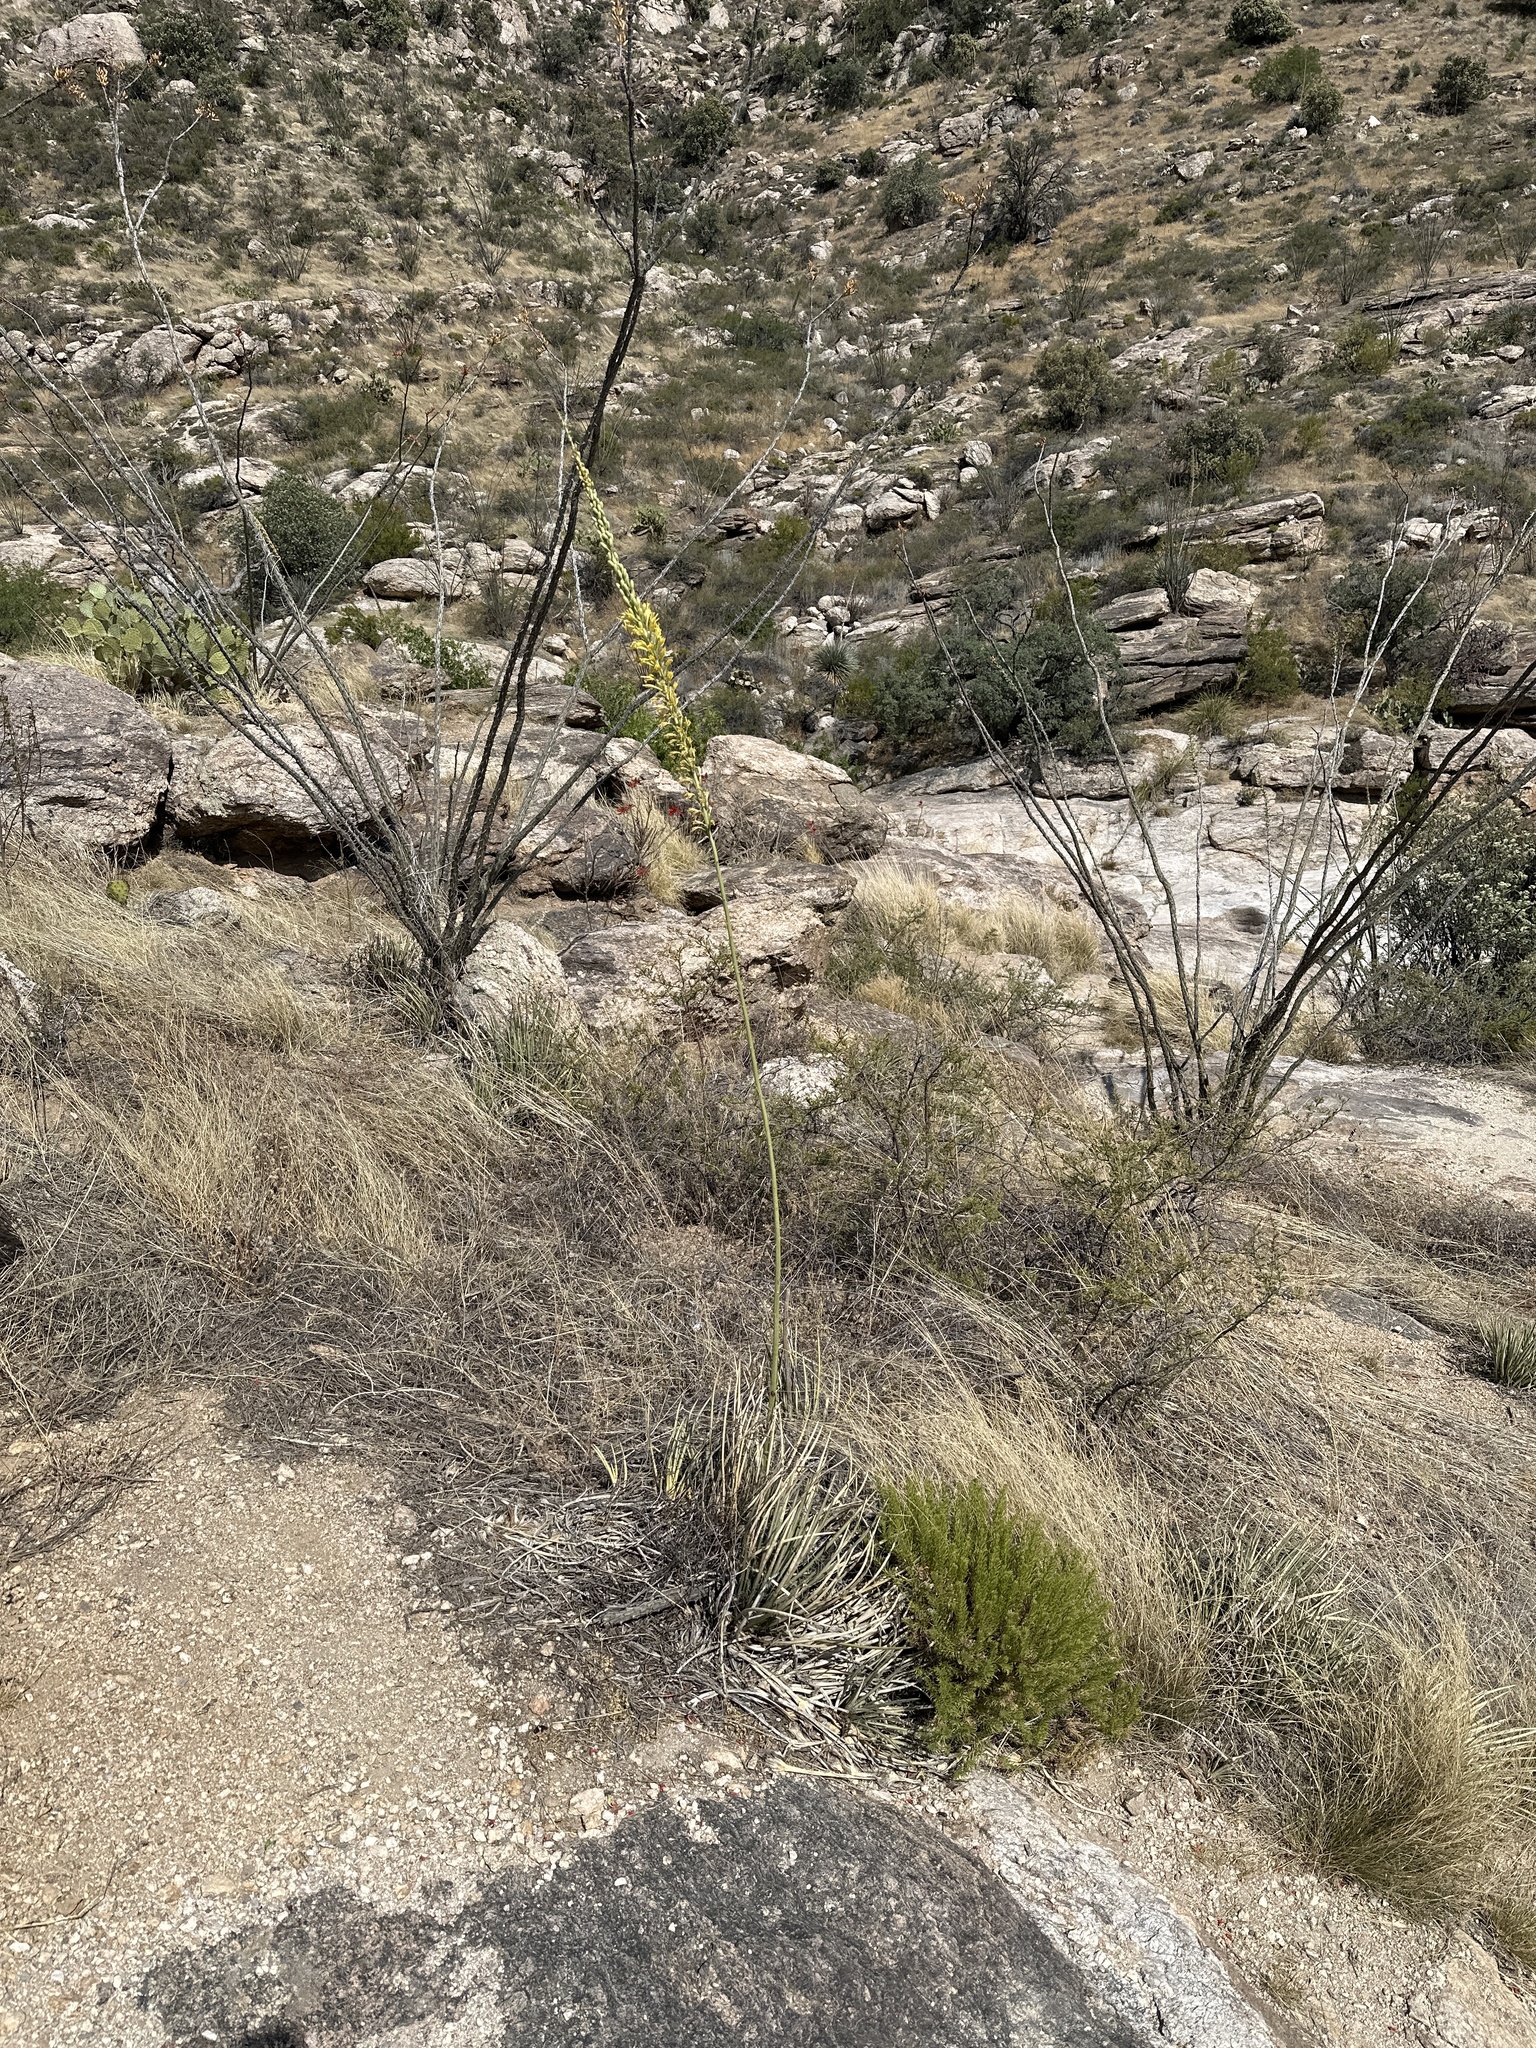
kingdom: Plantae
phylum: Tracheophyta
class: Liliopsida
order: Asparagales
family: Asparagaceae
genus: Agave
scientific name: Agave schottii
